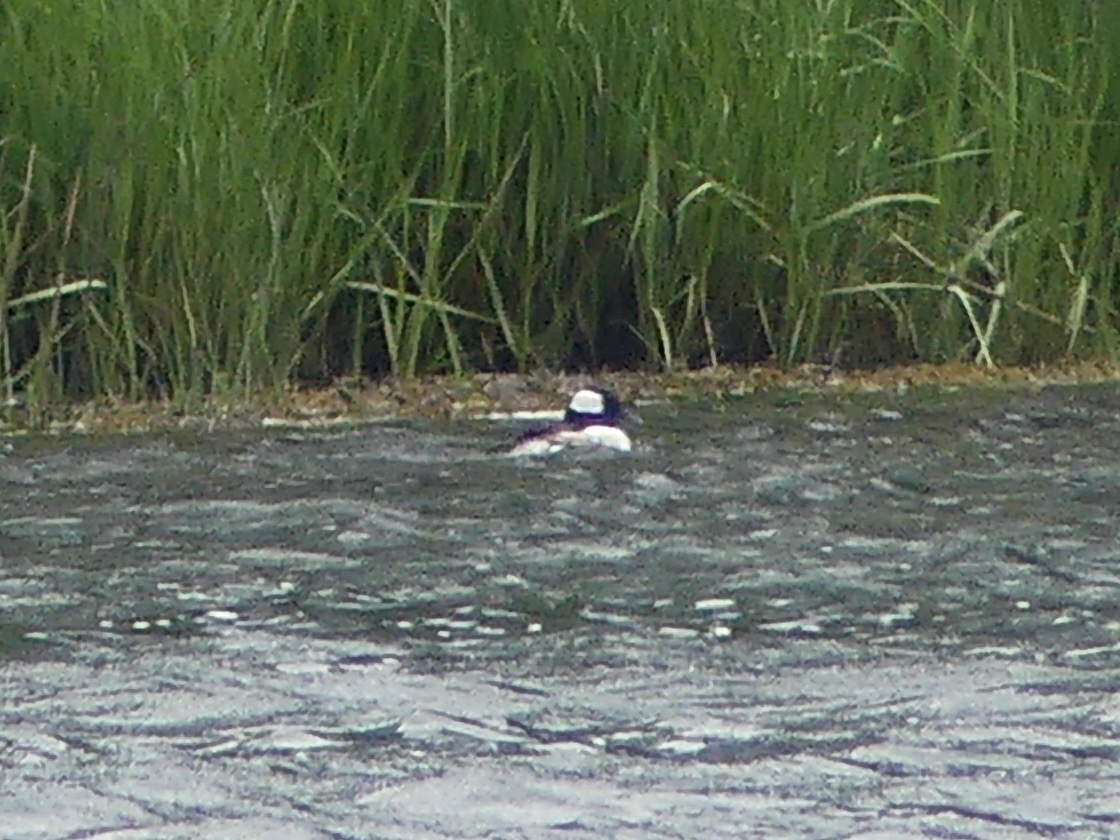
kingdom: Animalia
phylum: Chordata
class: Aves
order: Anseriformes
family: Anatidae
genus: Bucephala
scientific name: Bucephala albeola
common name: Bufflehead
